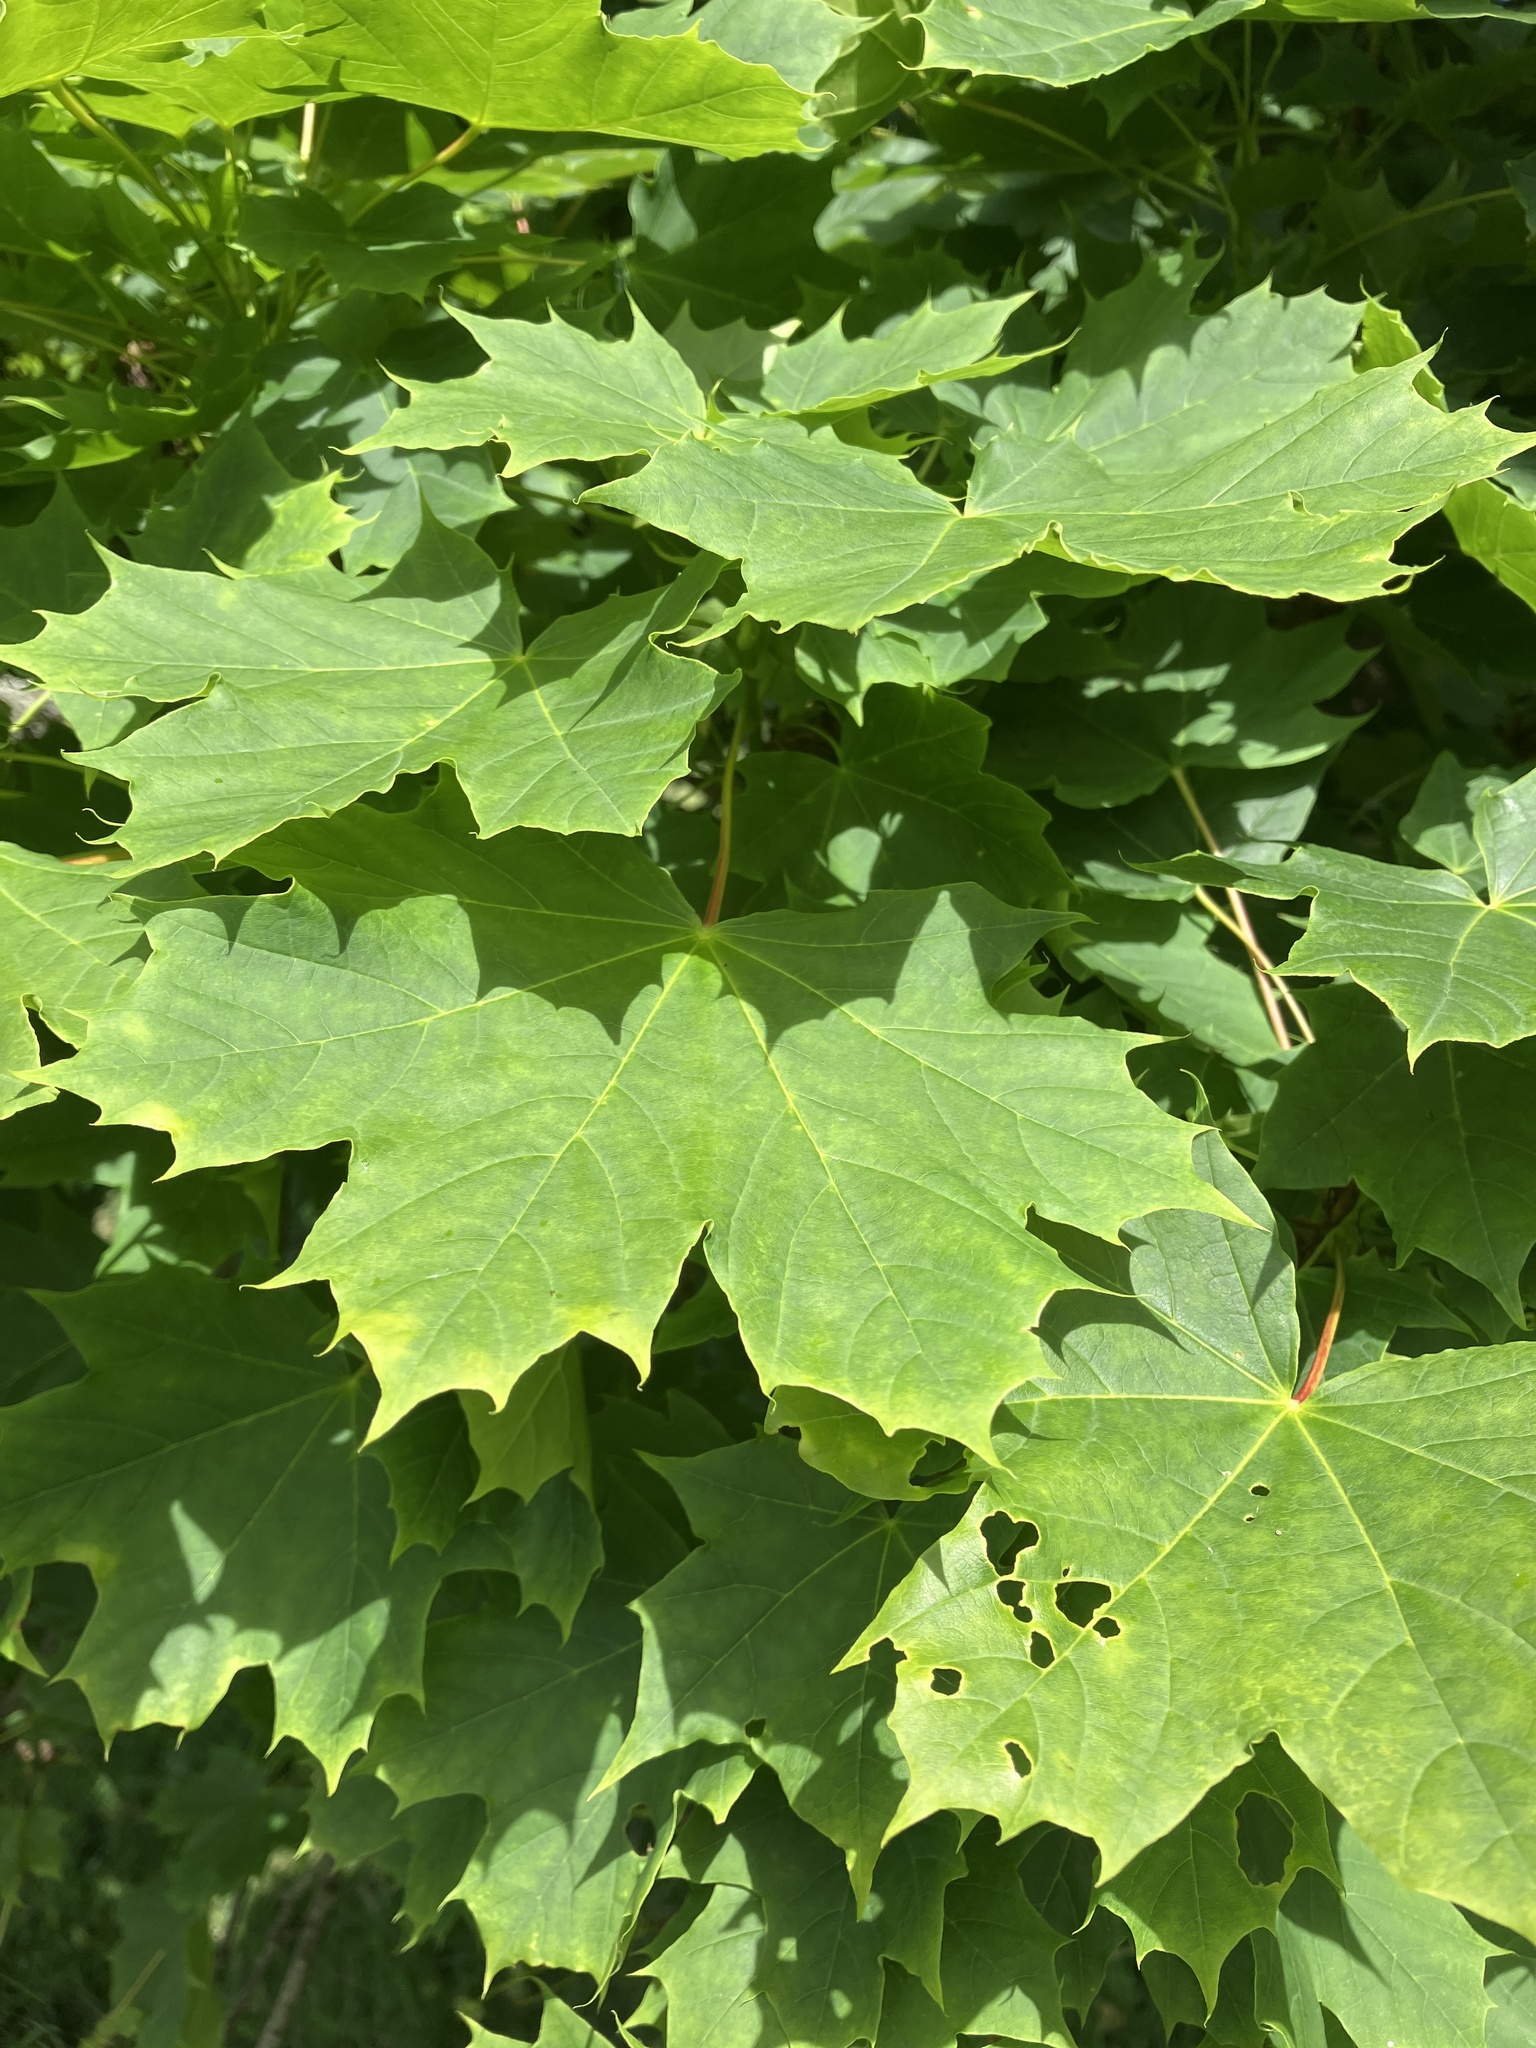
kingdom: Plantae
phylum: Tracheophyta
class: Magnoliopsida
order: Sapindales
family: Sapindaceae
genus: Acer
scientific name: Acer platanoides
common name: Norway maple
